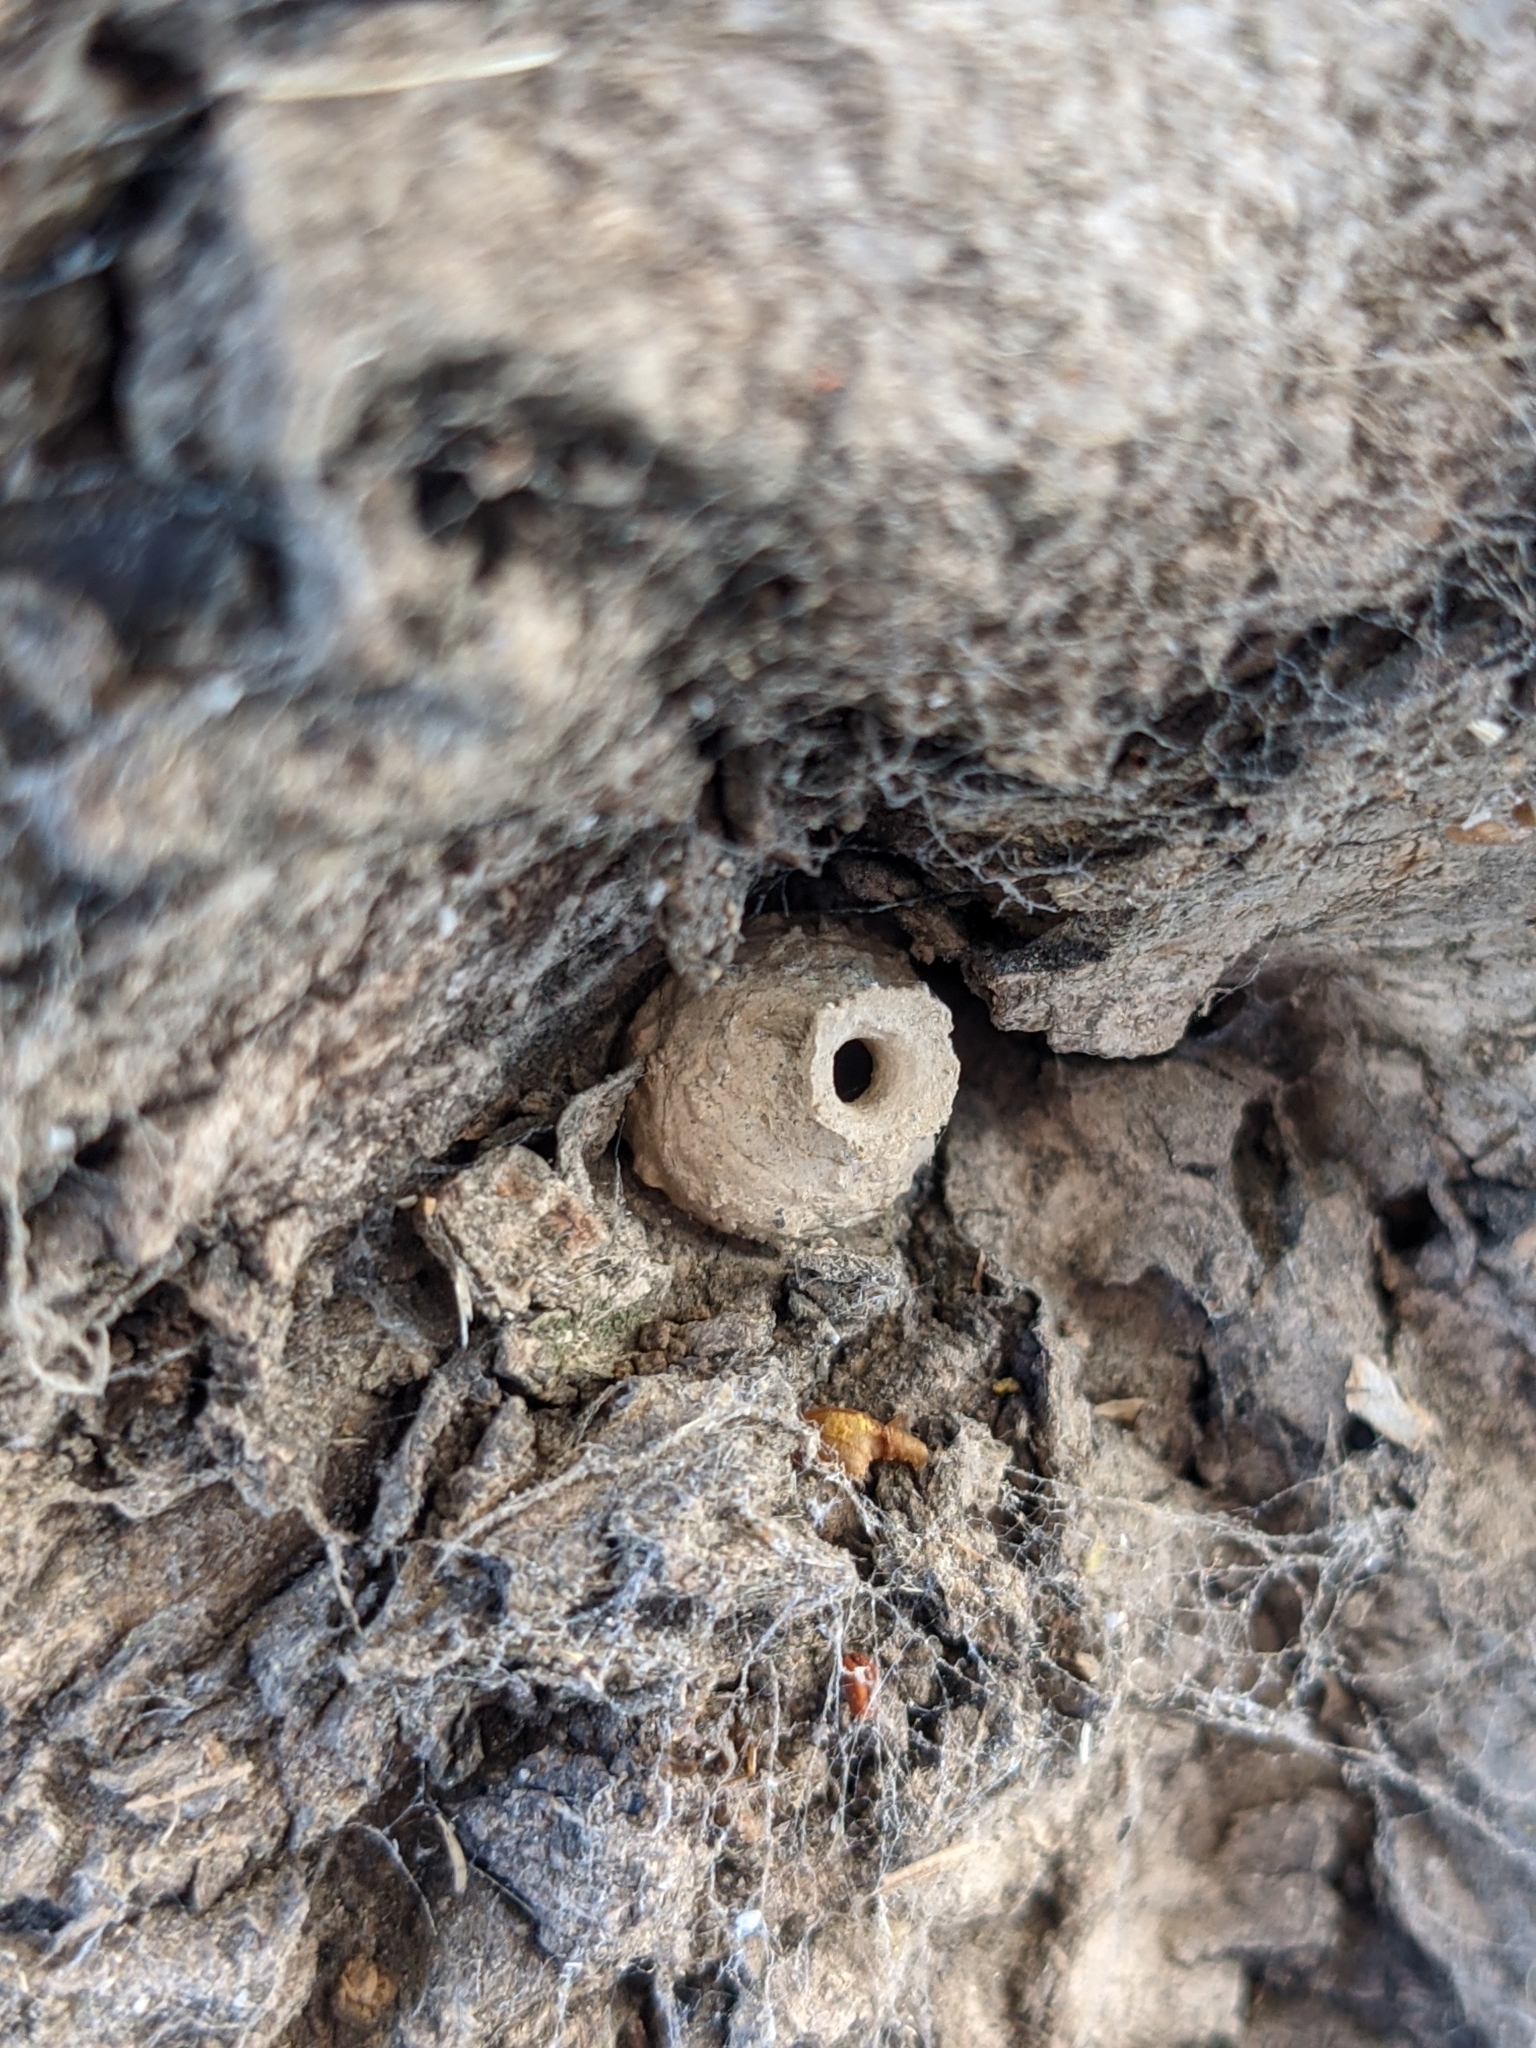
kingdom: Animalia
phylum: Arthropoda
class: Insecta
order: Hymenoptera
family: Vespidae
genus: Eumenes
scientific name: Eumenes
